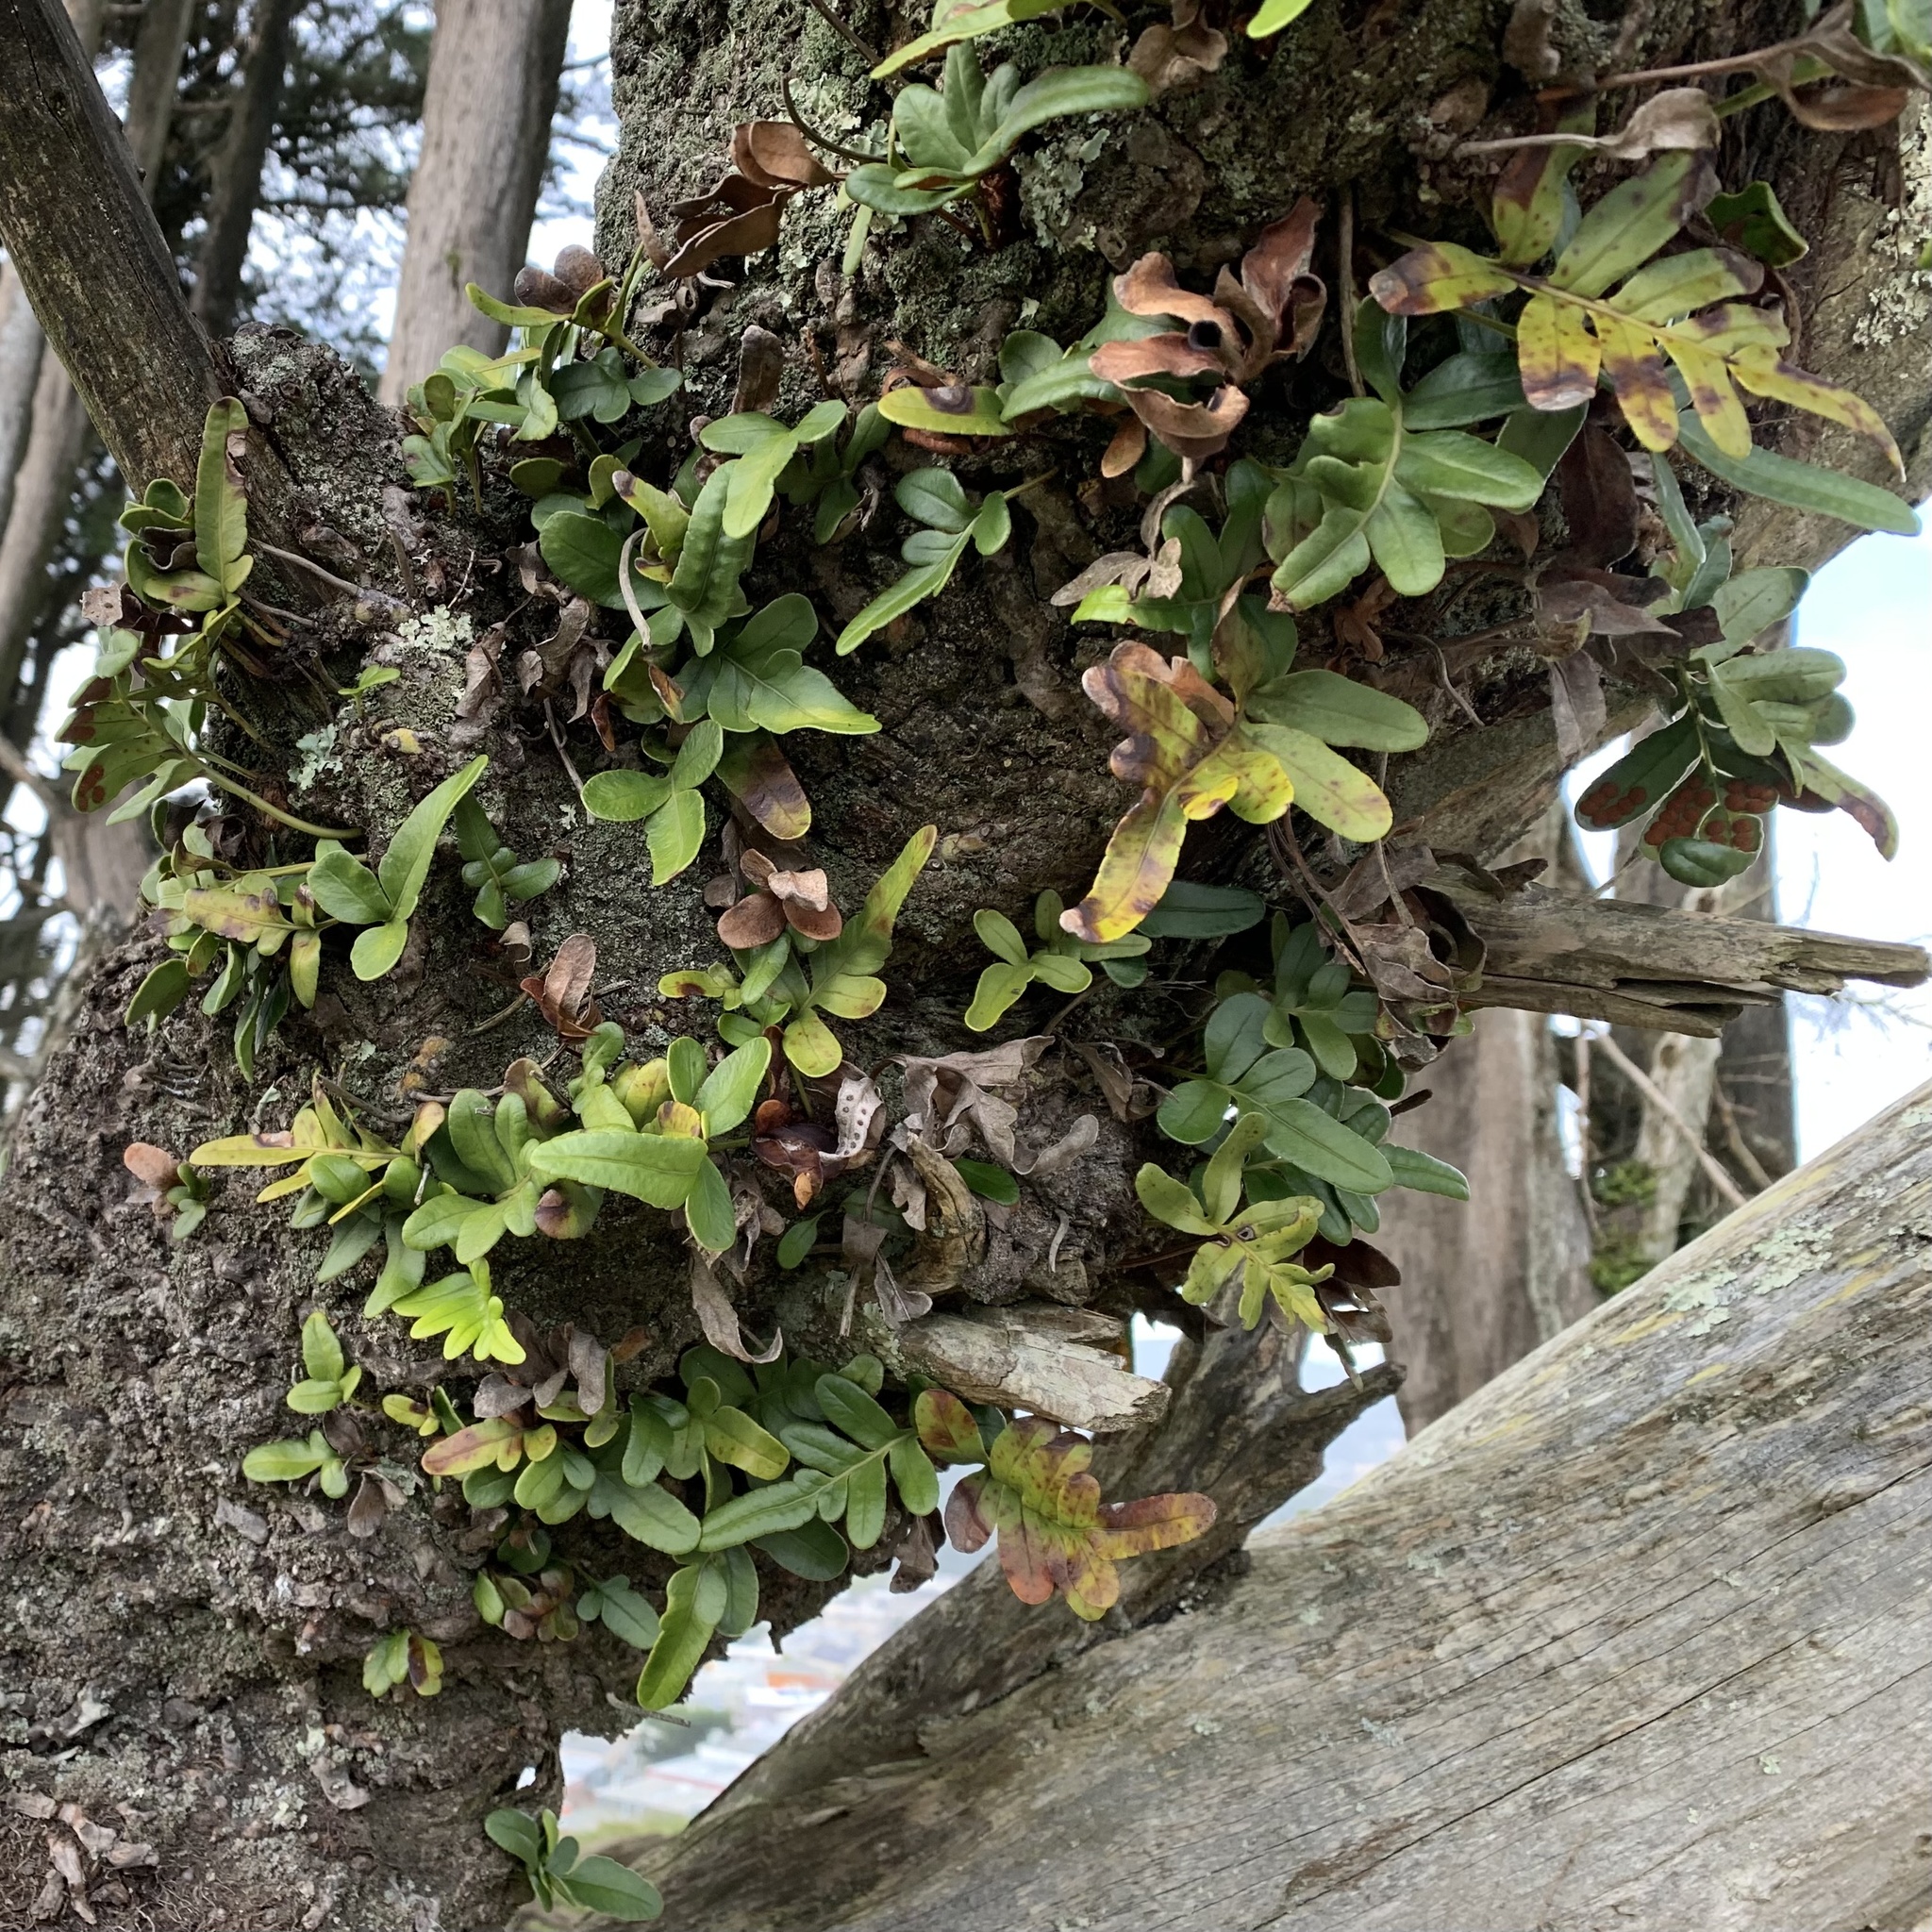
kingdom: Plantae
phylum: Tracheophyta
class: Polypodiopsida
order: Polypodiales
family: Polypodiaceae
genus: Polypodium
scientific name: Polypodium scouleri
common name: Scouler's polypody
